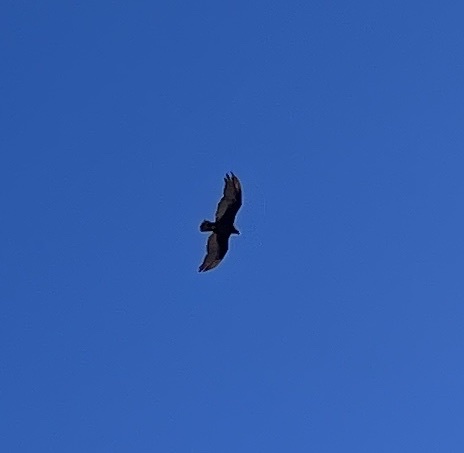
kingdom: Animalia
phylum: Chordata
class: Aves
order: Accipitriformes
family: Cathartidae
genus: Cathartes
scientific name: Cathartes aura
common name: Turkey vulture
